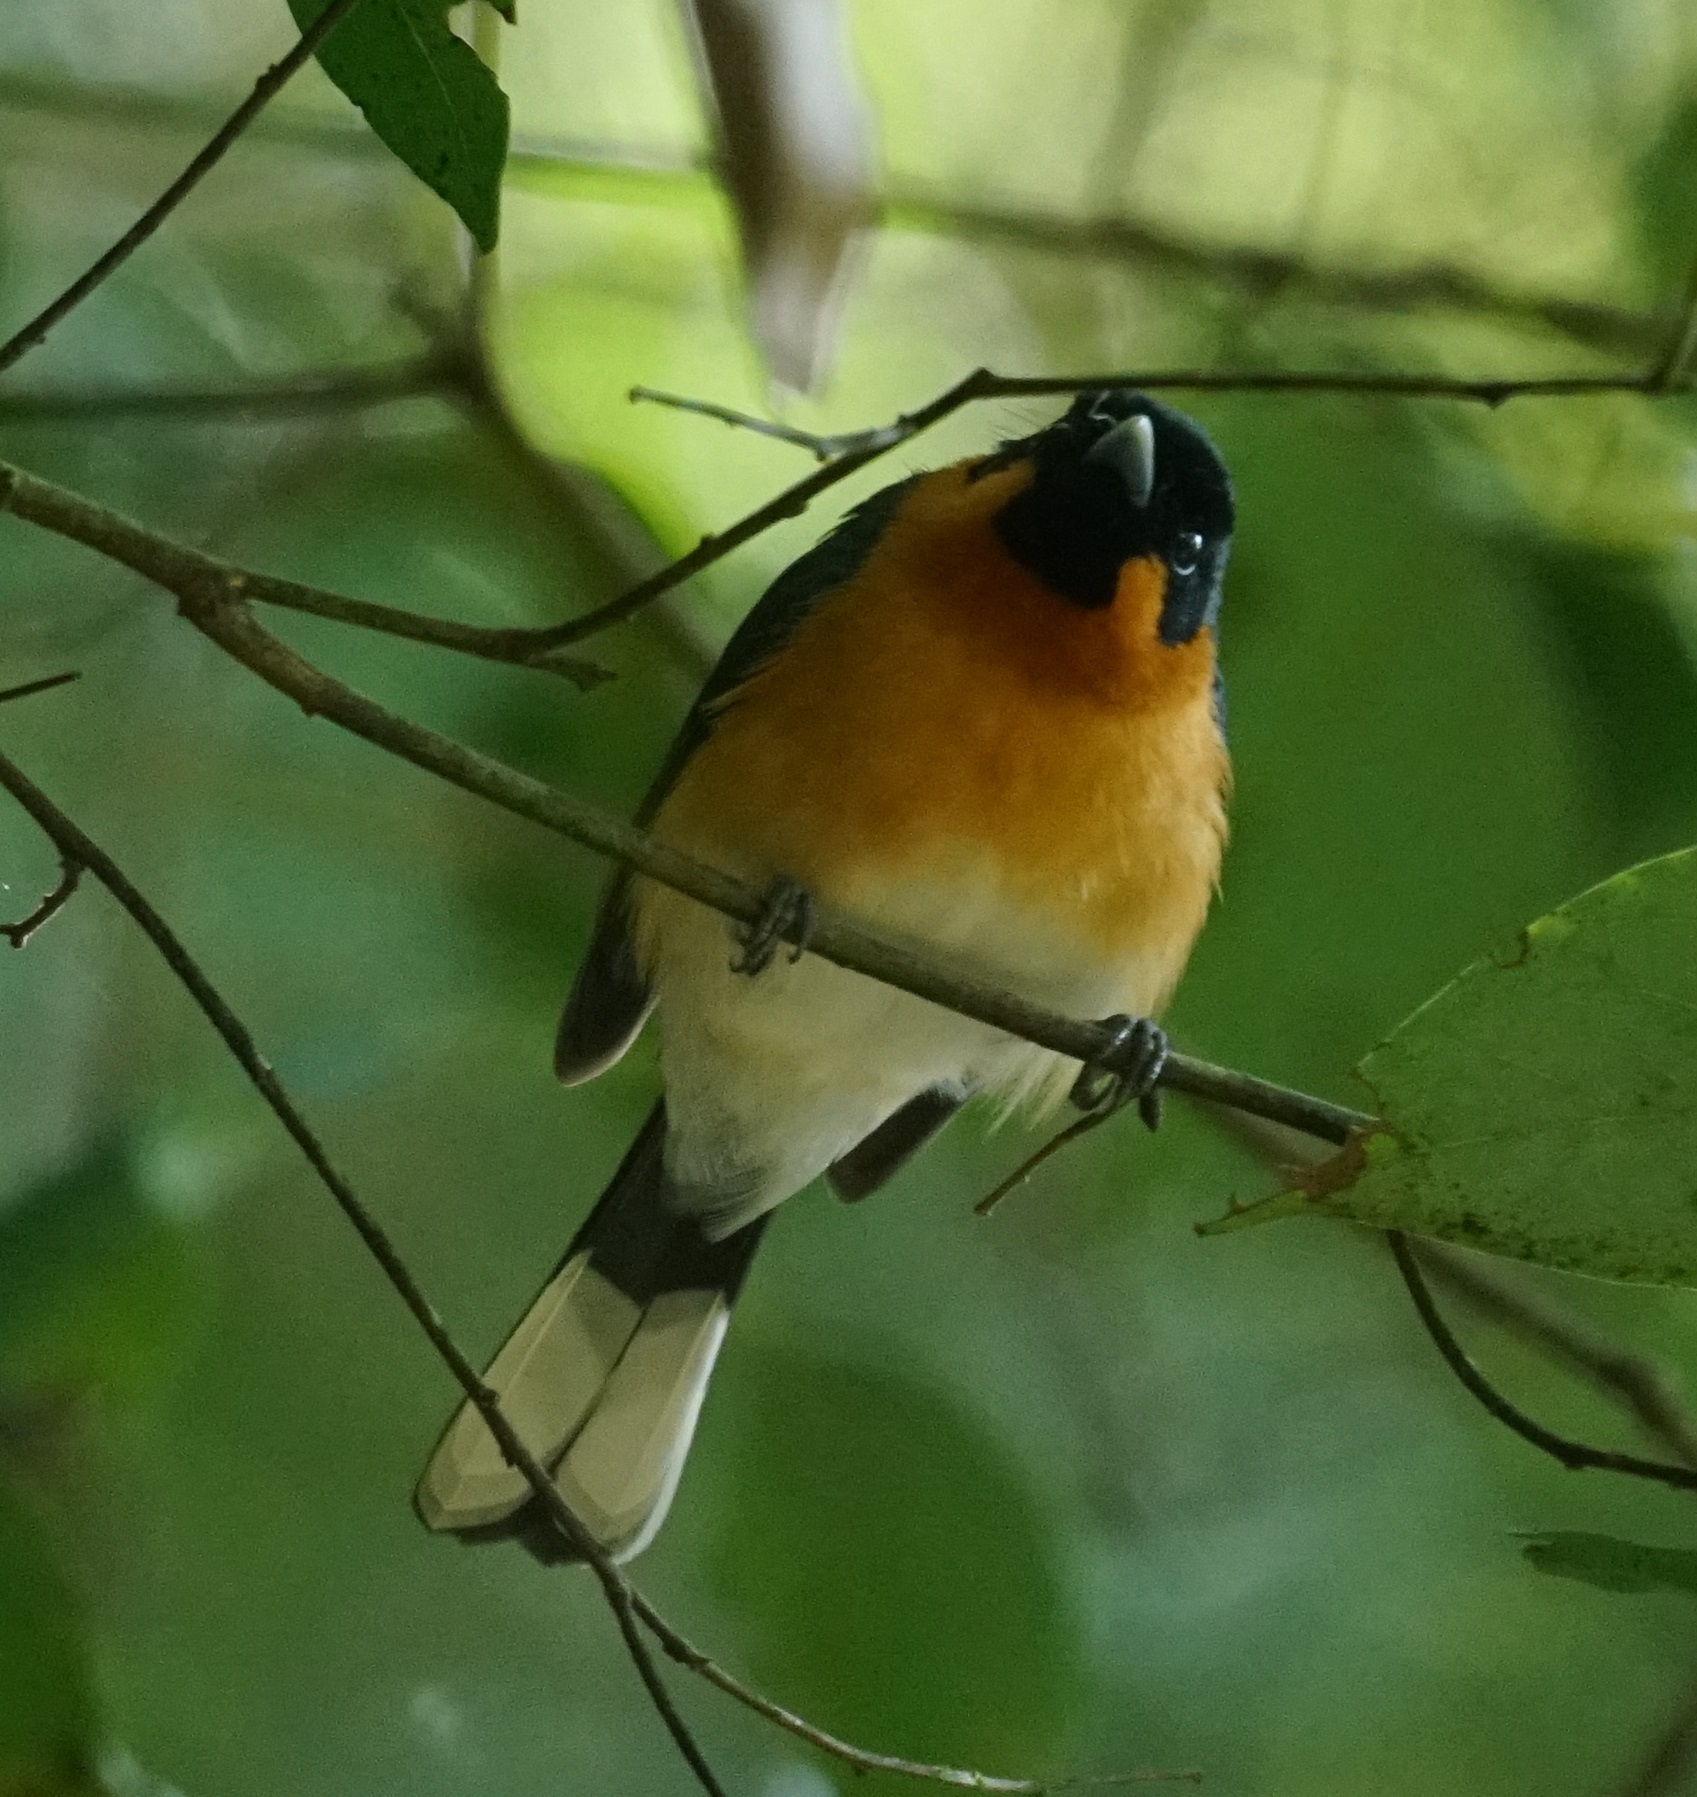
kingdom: Animalia
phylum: Chordata
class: Aves
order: Passeriformes
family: Monarchidae
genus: Symposiachrus
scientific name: Symposiachrus trivirgatus
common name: Spectacled monarch
